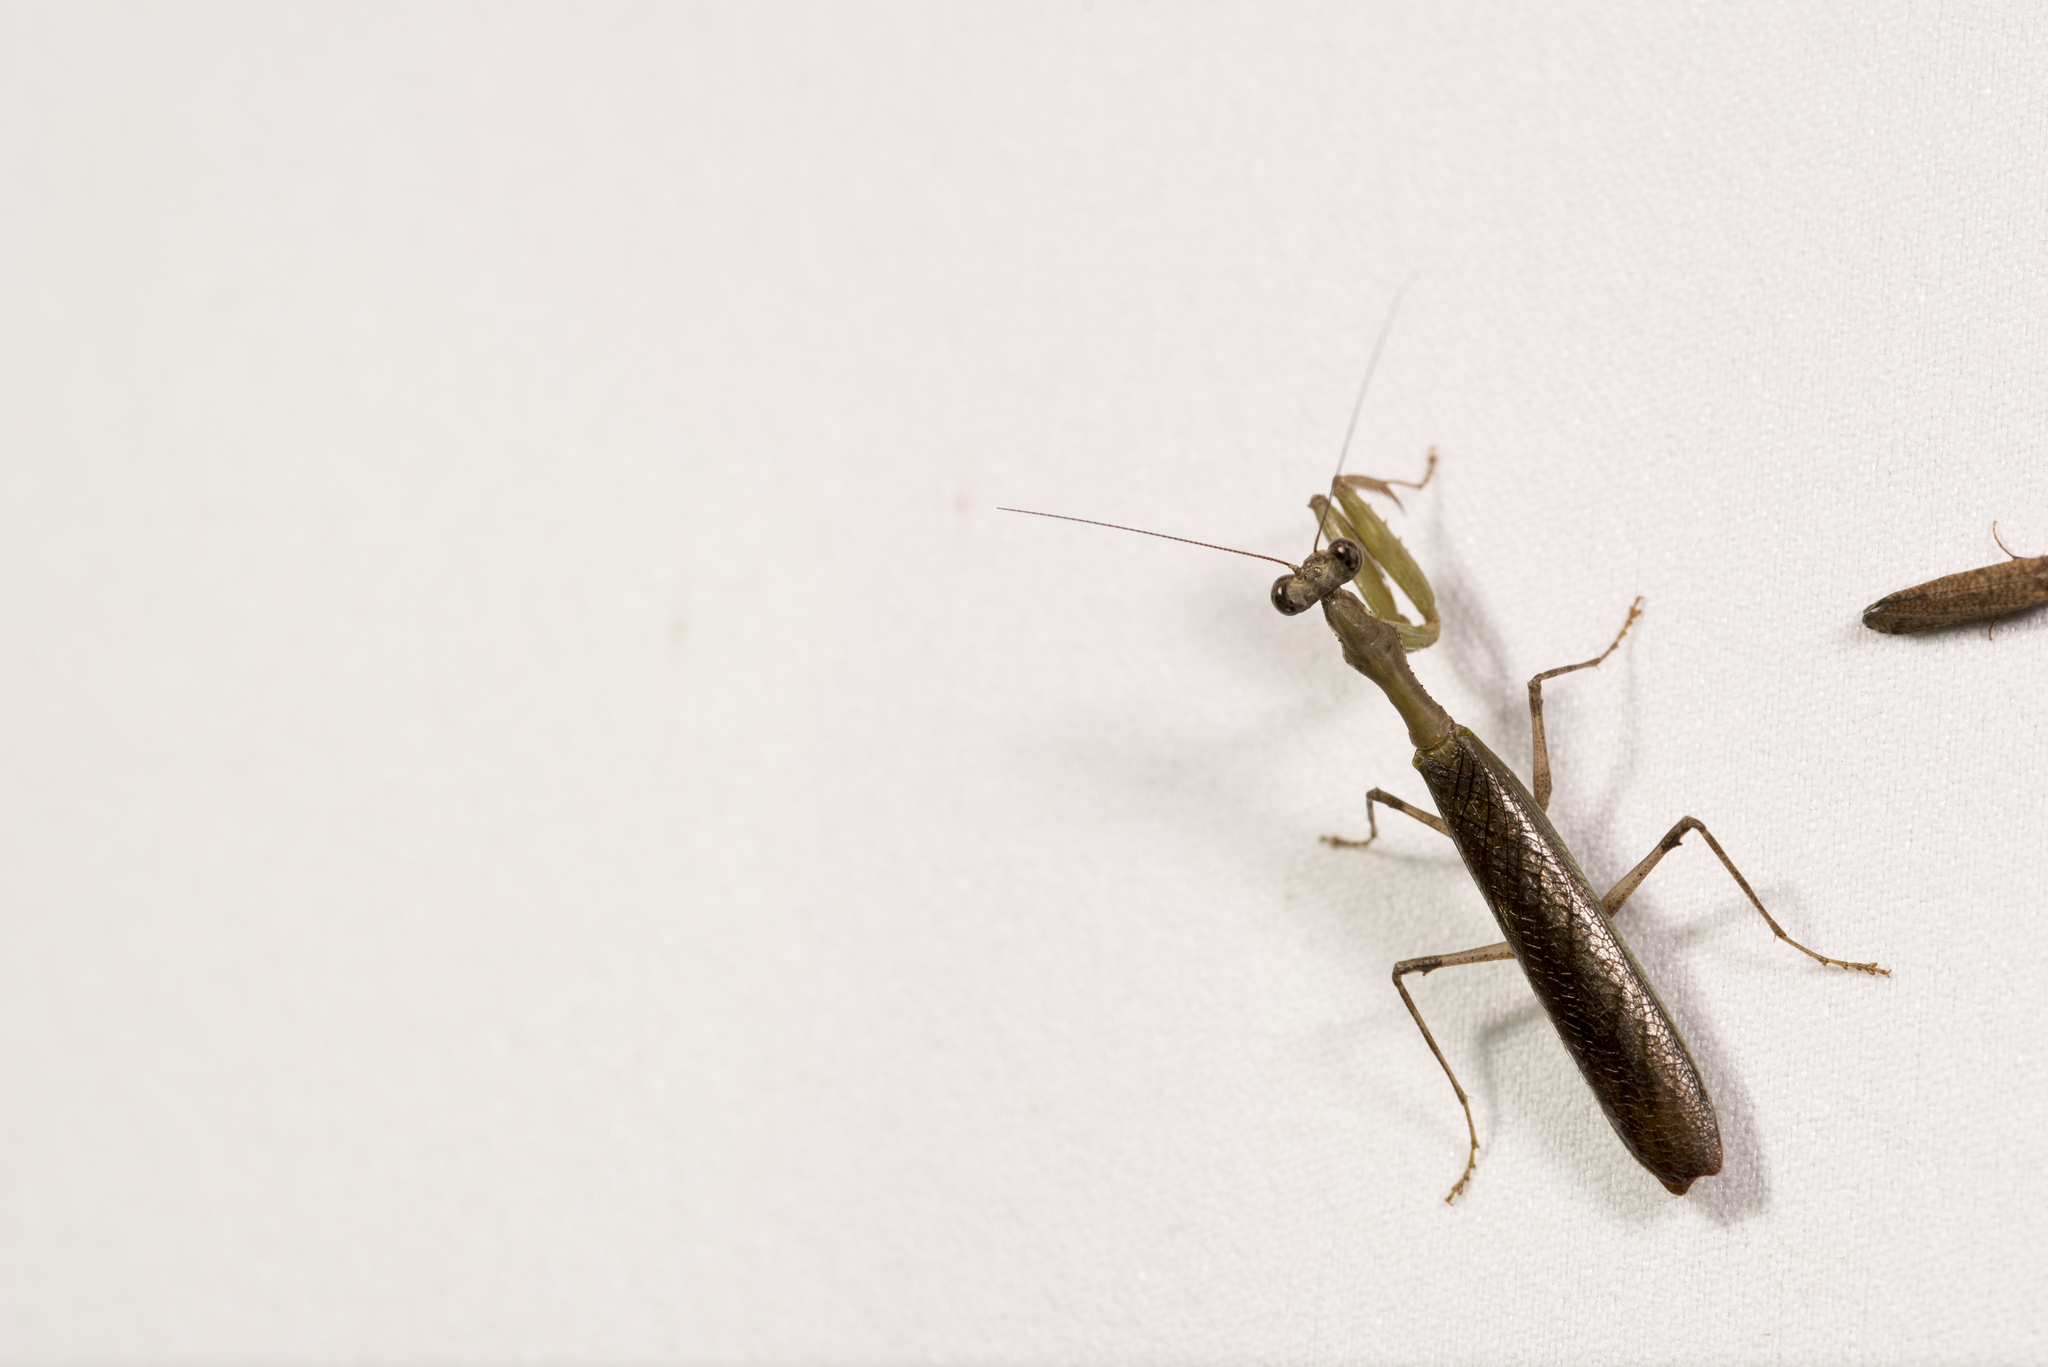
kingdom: Animalia
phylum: Arthropoda
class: Insecta
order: Mantodea
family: Hymenopodidae
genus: Acromantis
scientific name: Acromantis japonica
